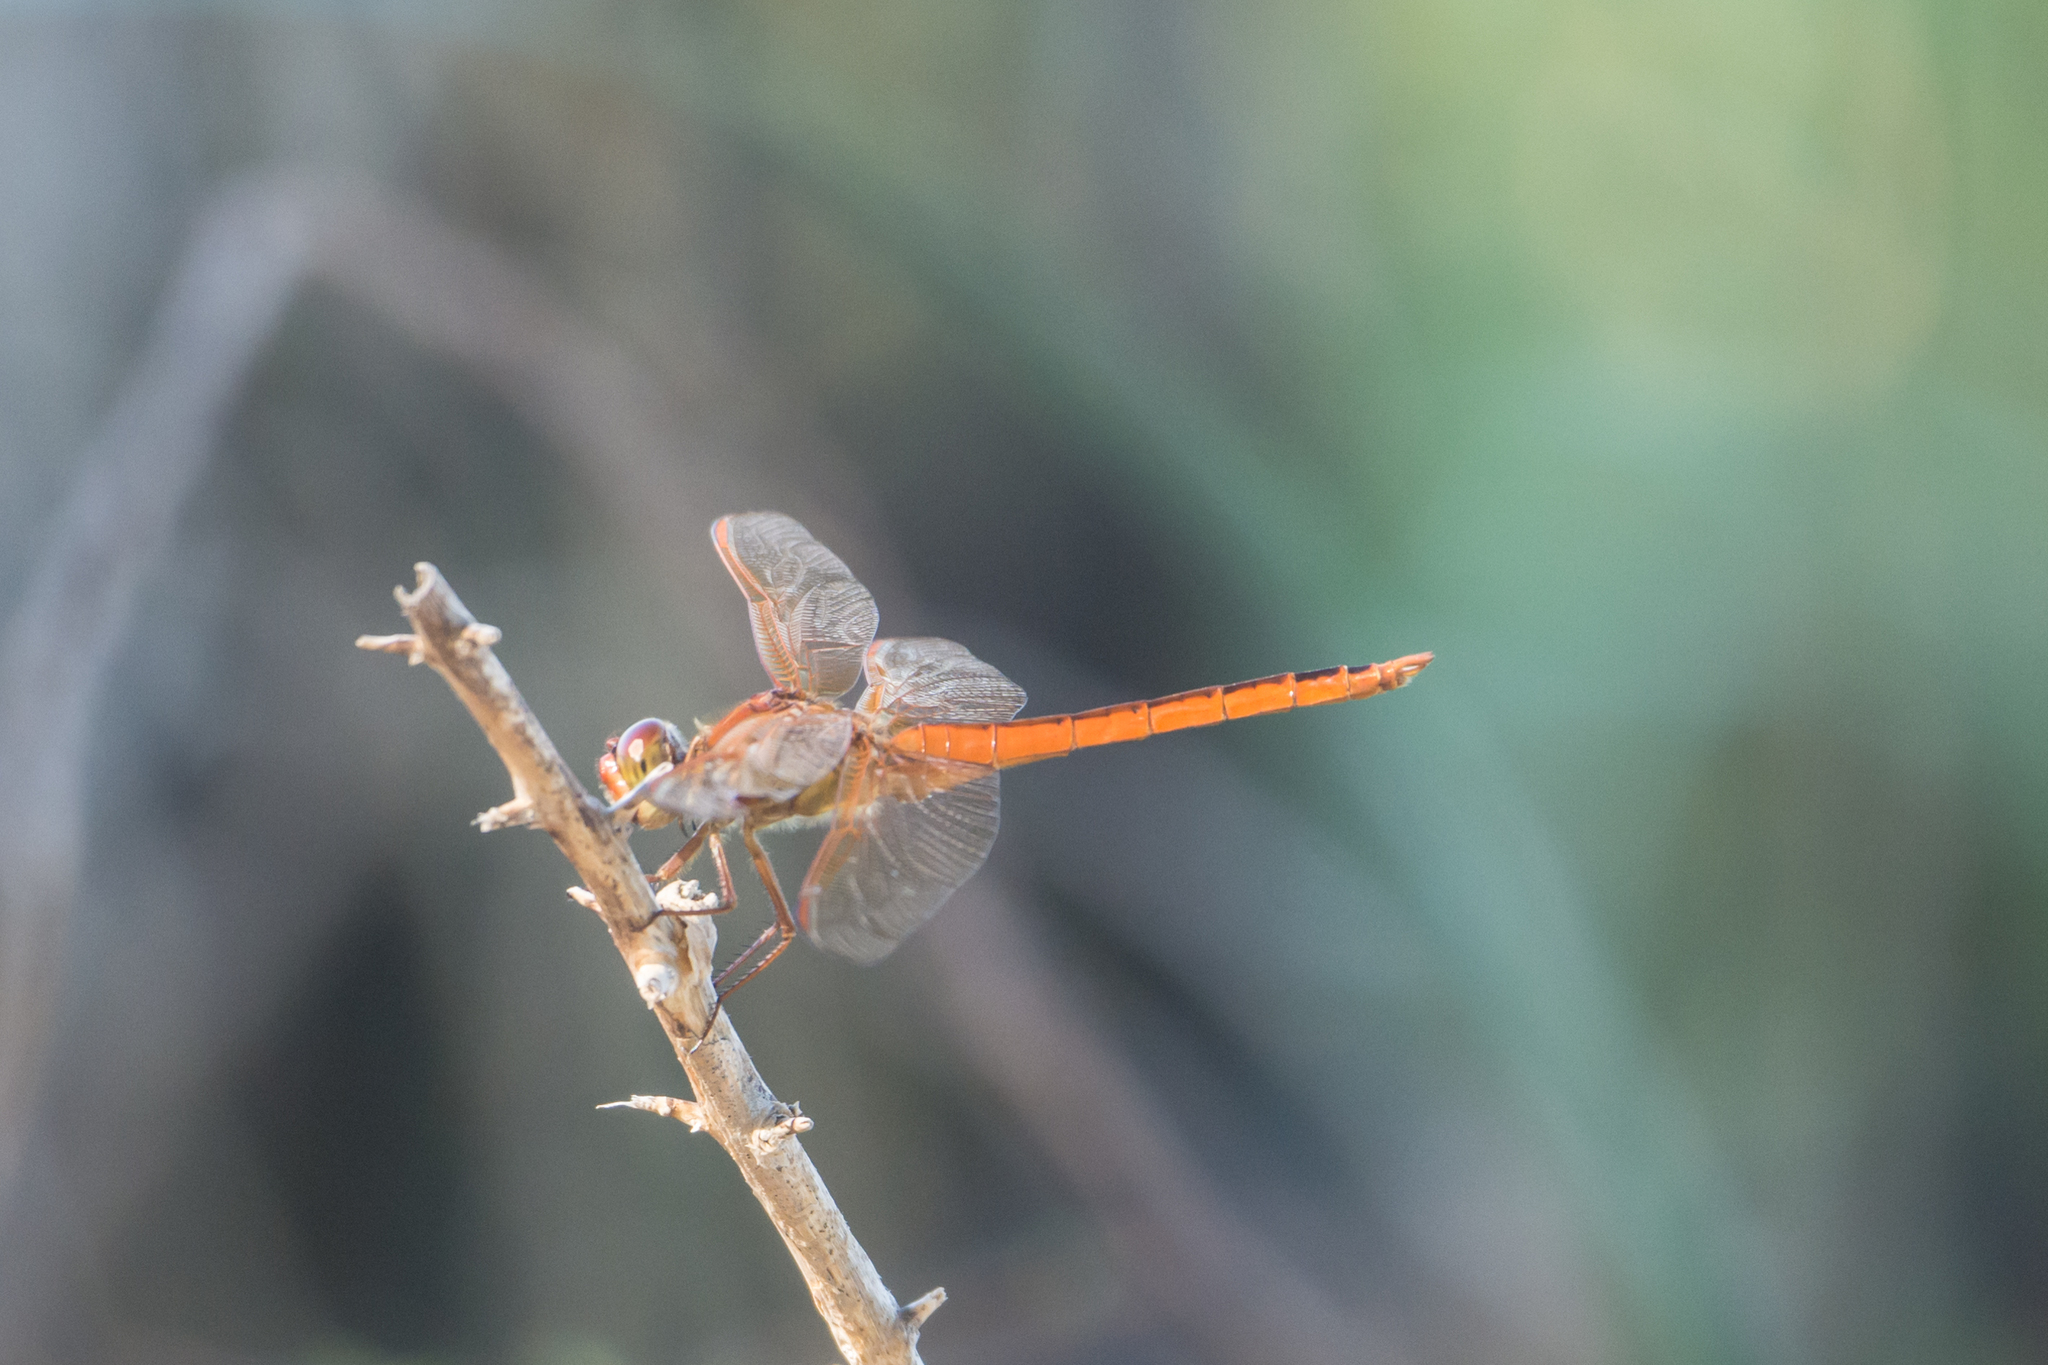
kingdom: Animalia
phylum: Arthropoda
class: Insecta
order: Odonata
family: Libellulidae
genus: Libellula
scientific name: Libellula needhami
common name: Needham's skimmer
